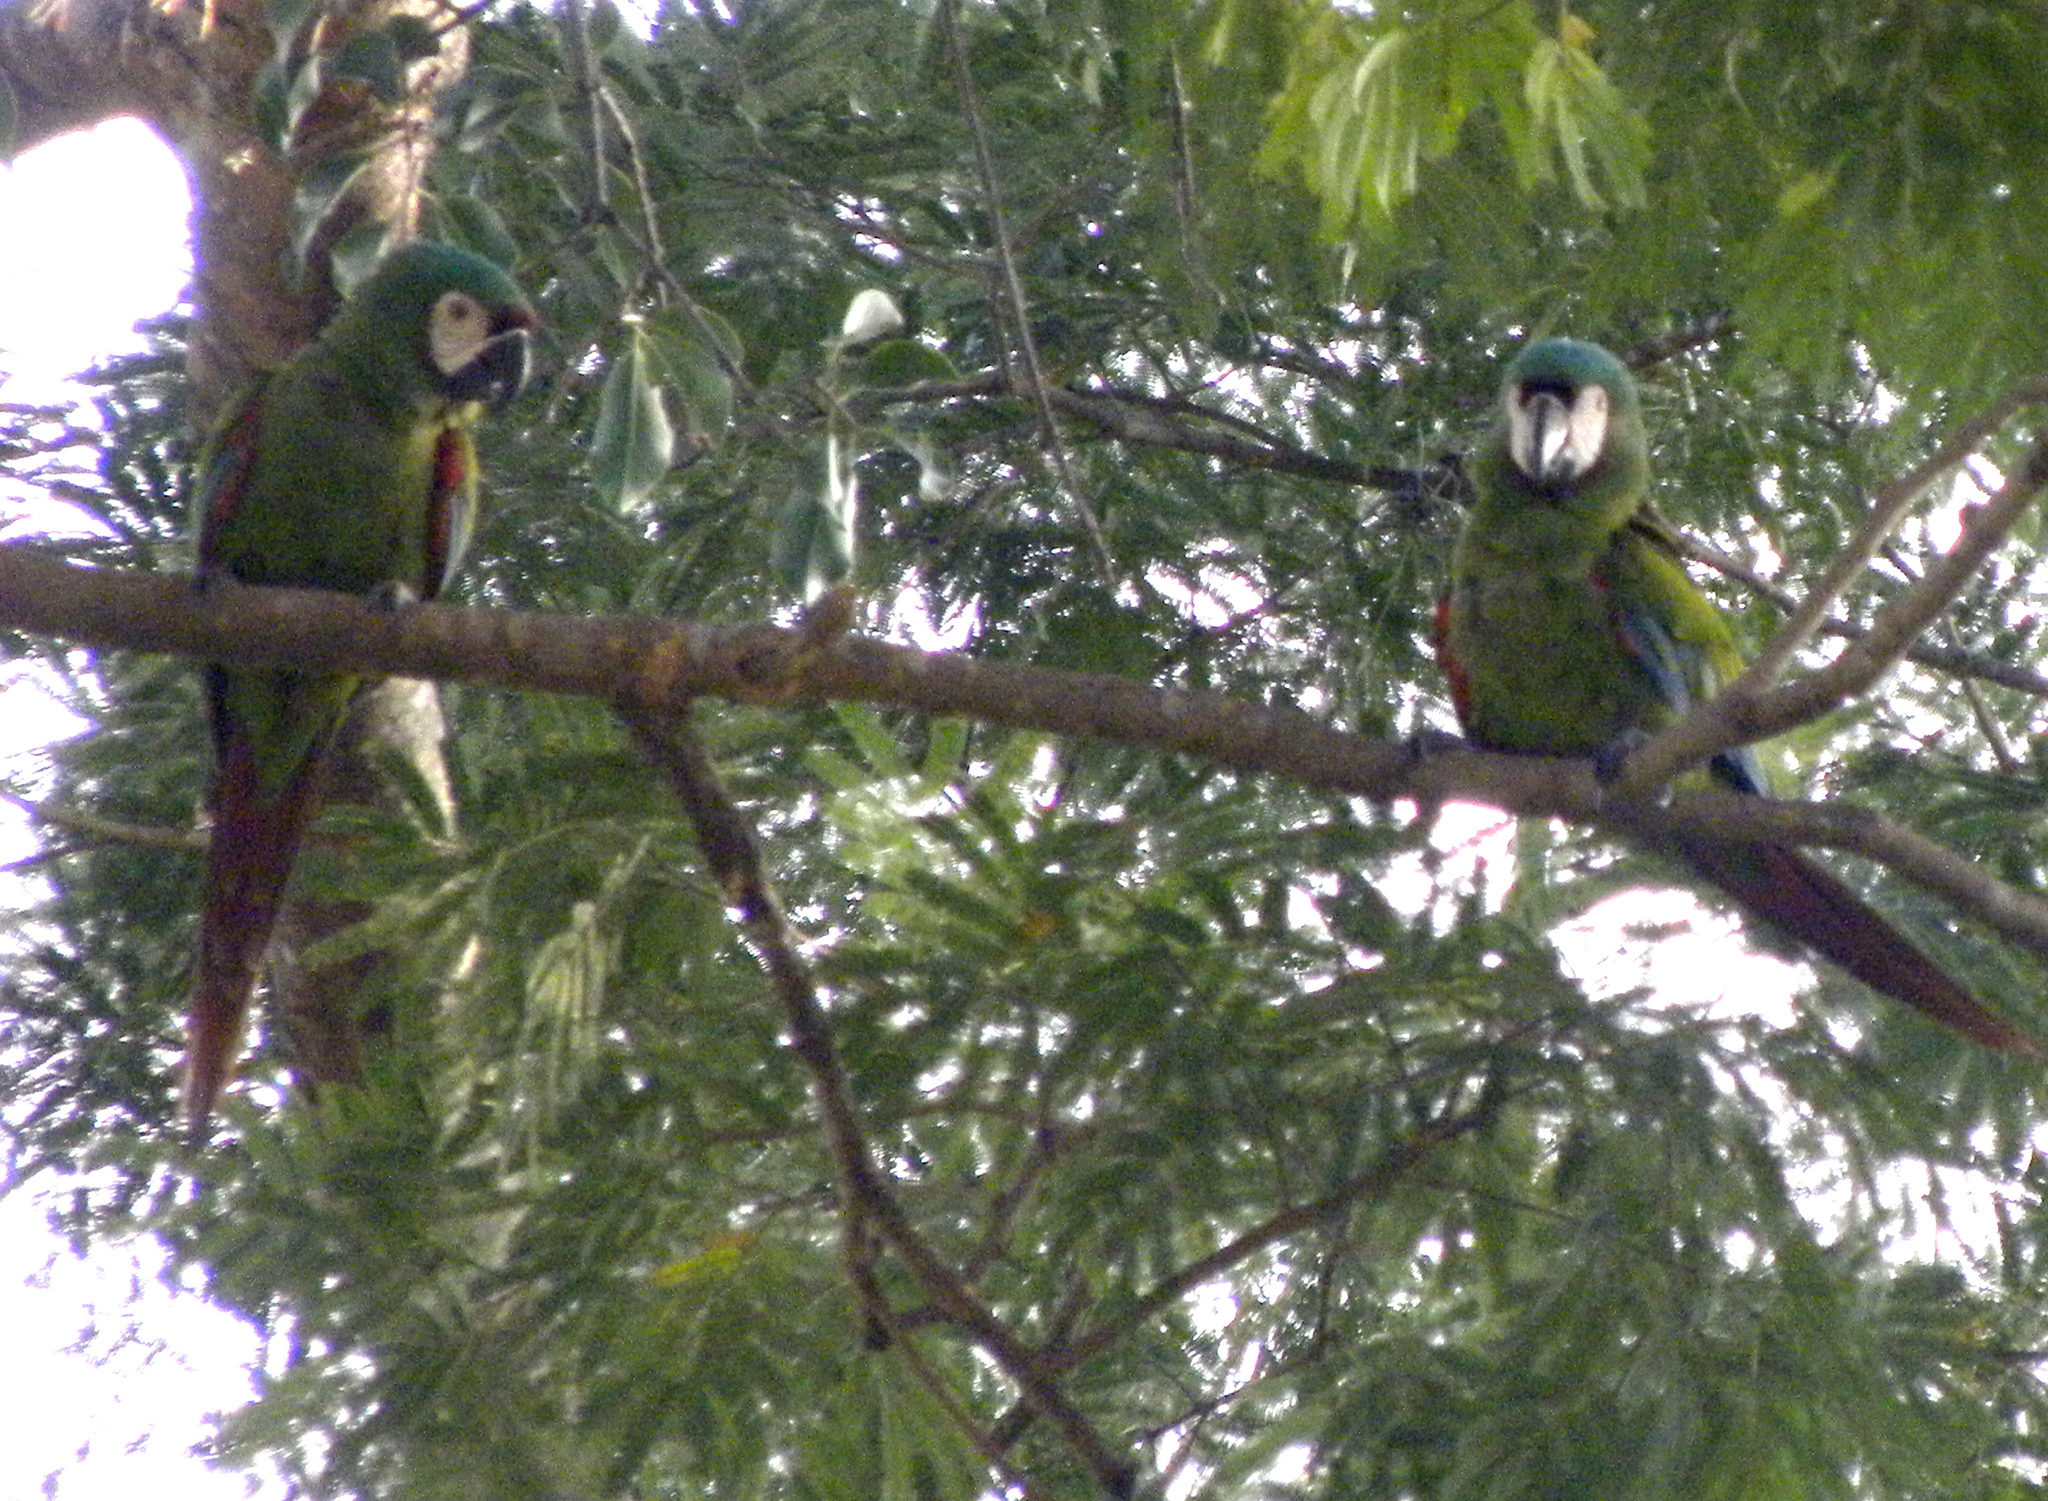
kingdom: Animalia
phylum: Chordata
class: Aves
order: Psittaciformes
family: Psittacidae
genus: Ara
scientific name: Ara severus
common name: Chestnut-fronted macaw
